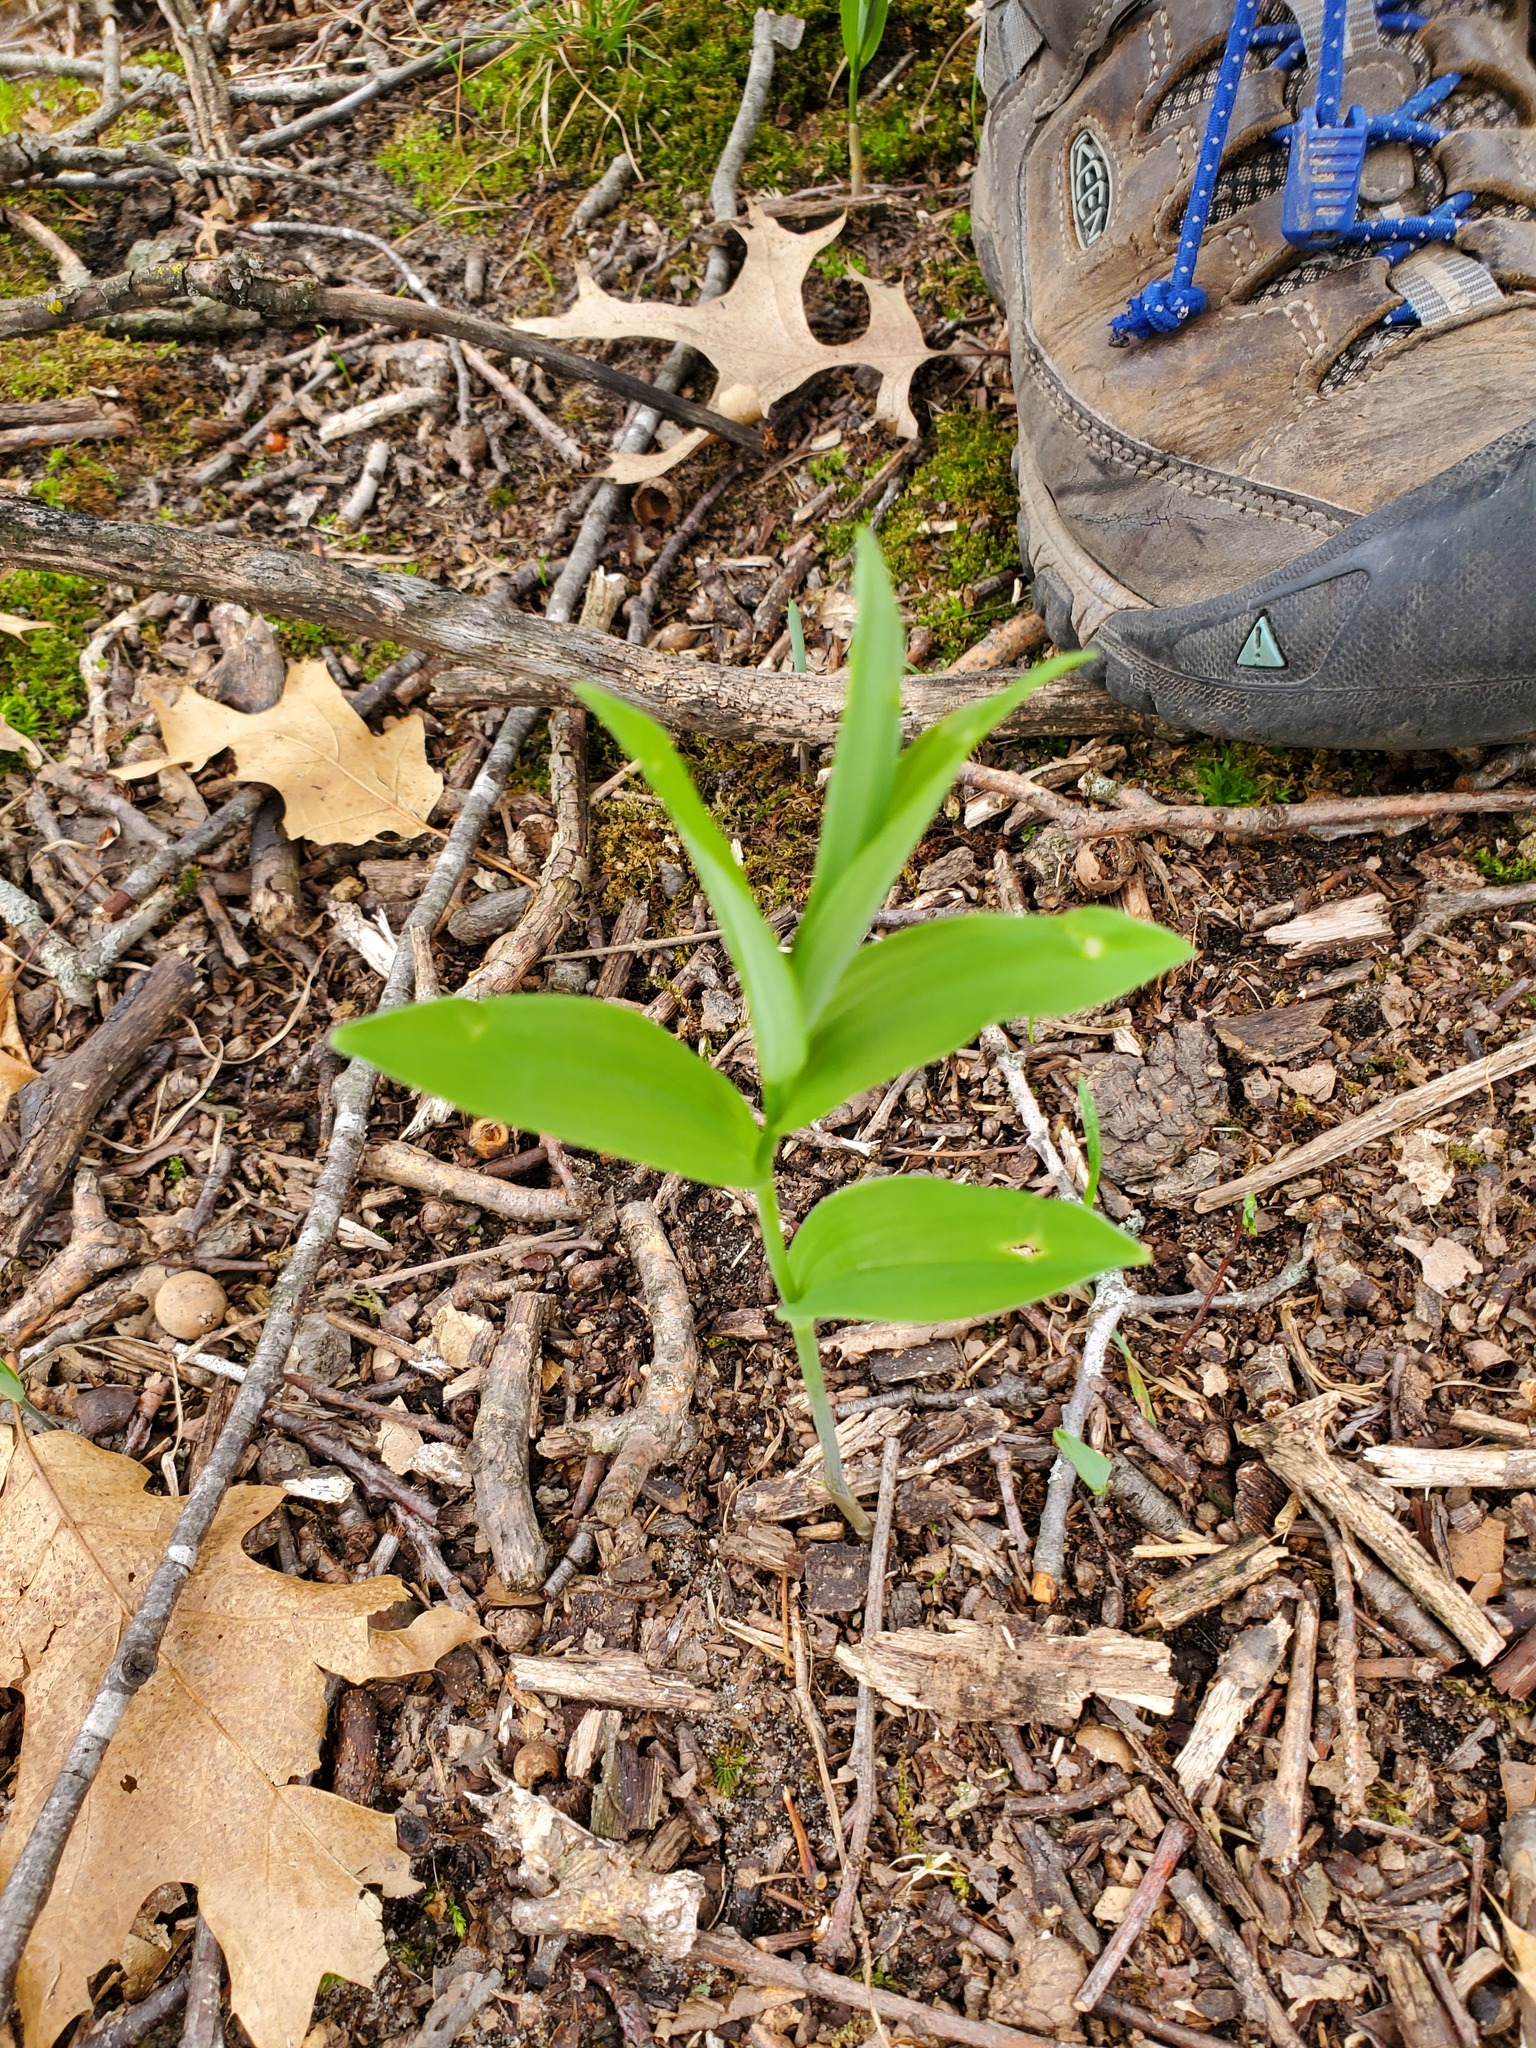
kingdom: Plantae
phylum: Tracheophyta
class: Liliopsida
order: Asparagales
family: Asparagaceae
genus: Polygonatum
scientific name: Polygonatum biflorum
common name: American solomon's-seal
